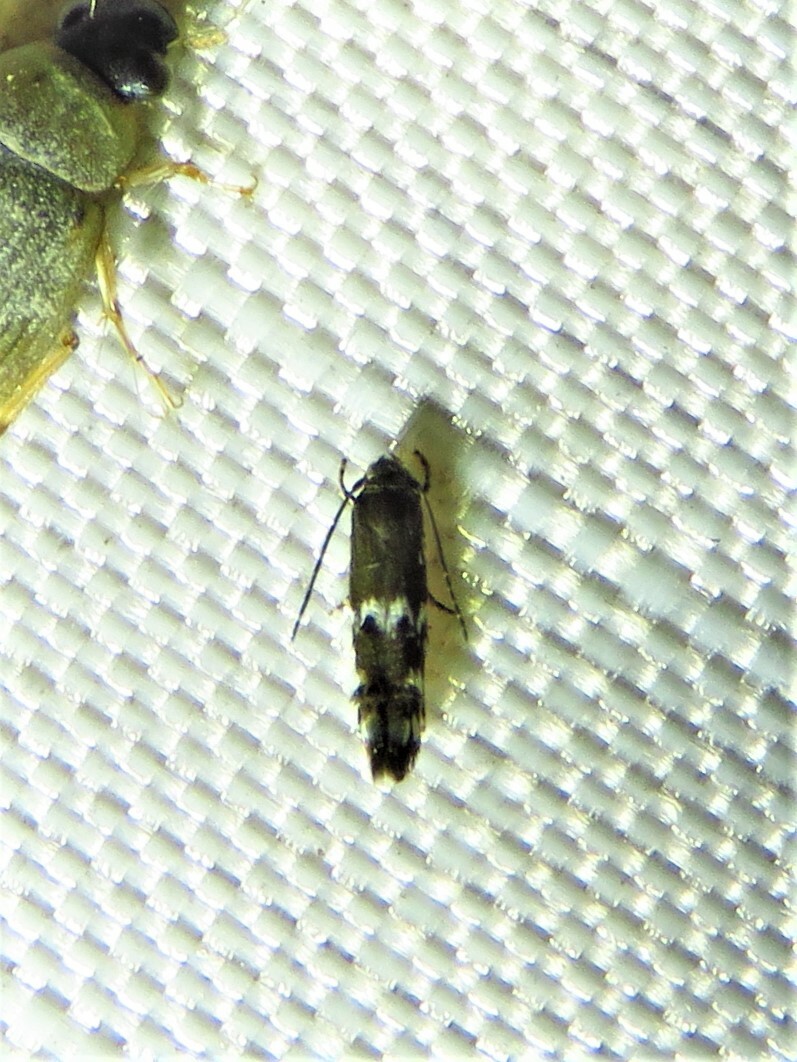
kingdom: Animalia
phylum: Arthropoda
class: Insecta
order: Lepidoptera
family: Gelechiidae
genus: Anacampsis
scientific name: Anacampsis levipedella
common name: Silver-dashed anacampsis
